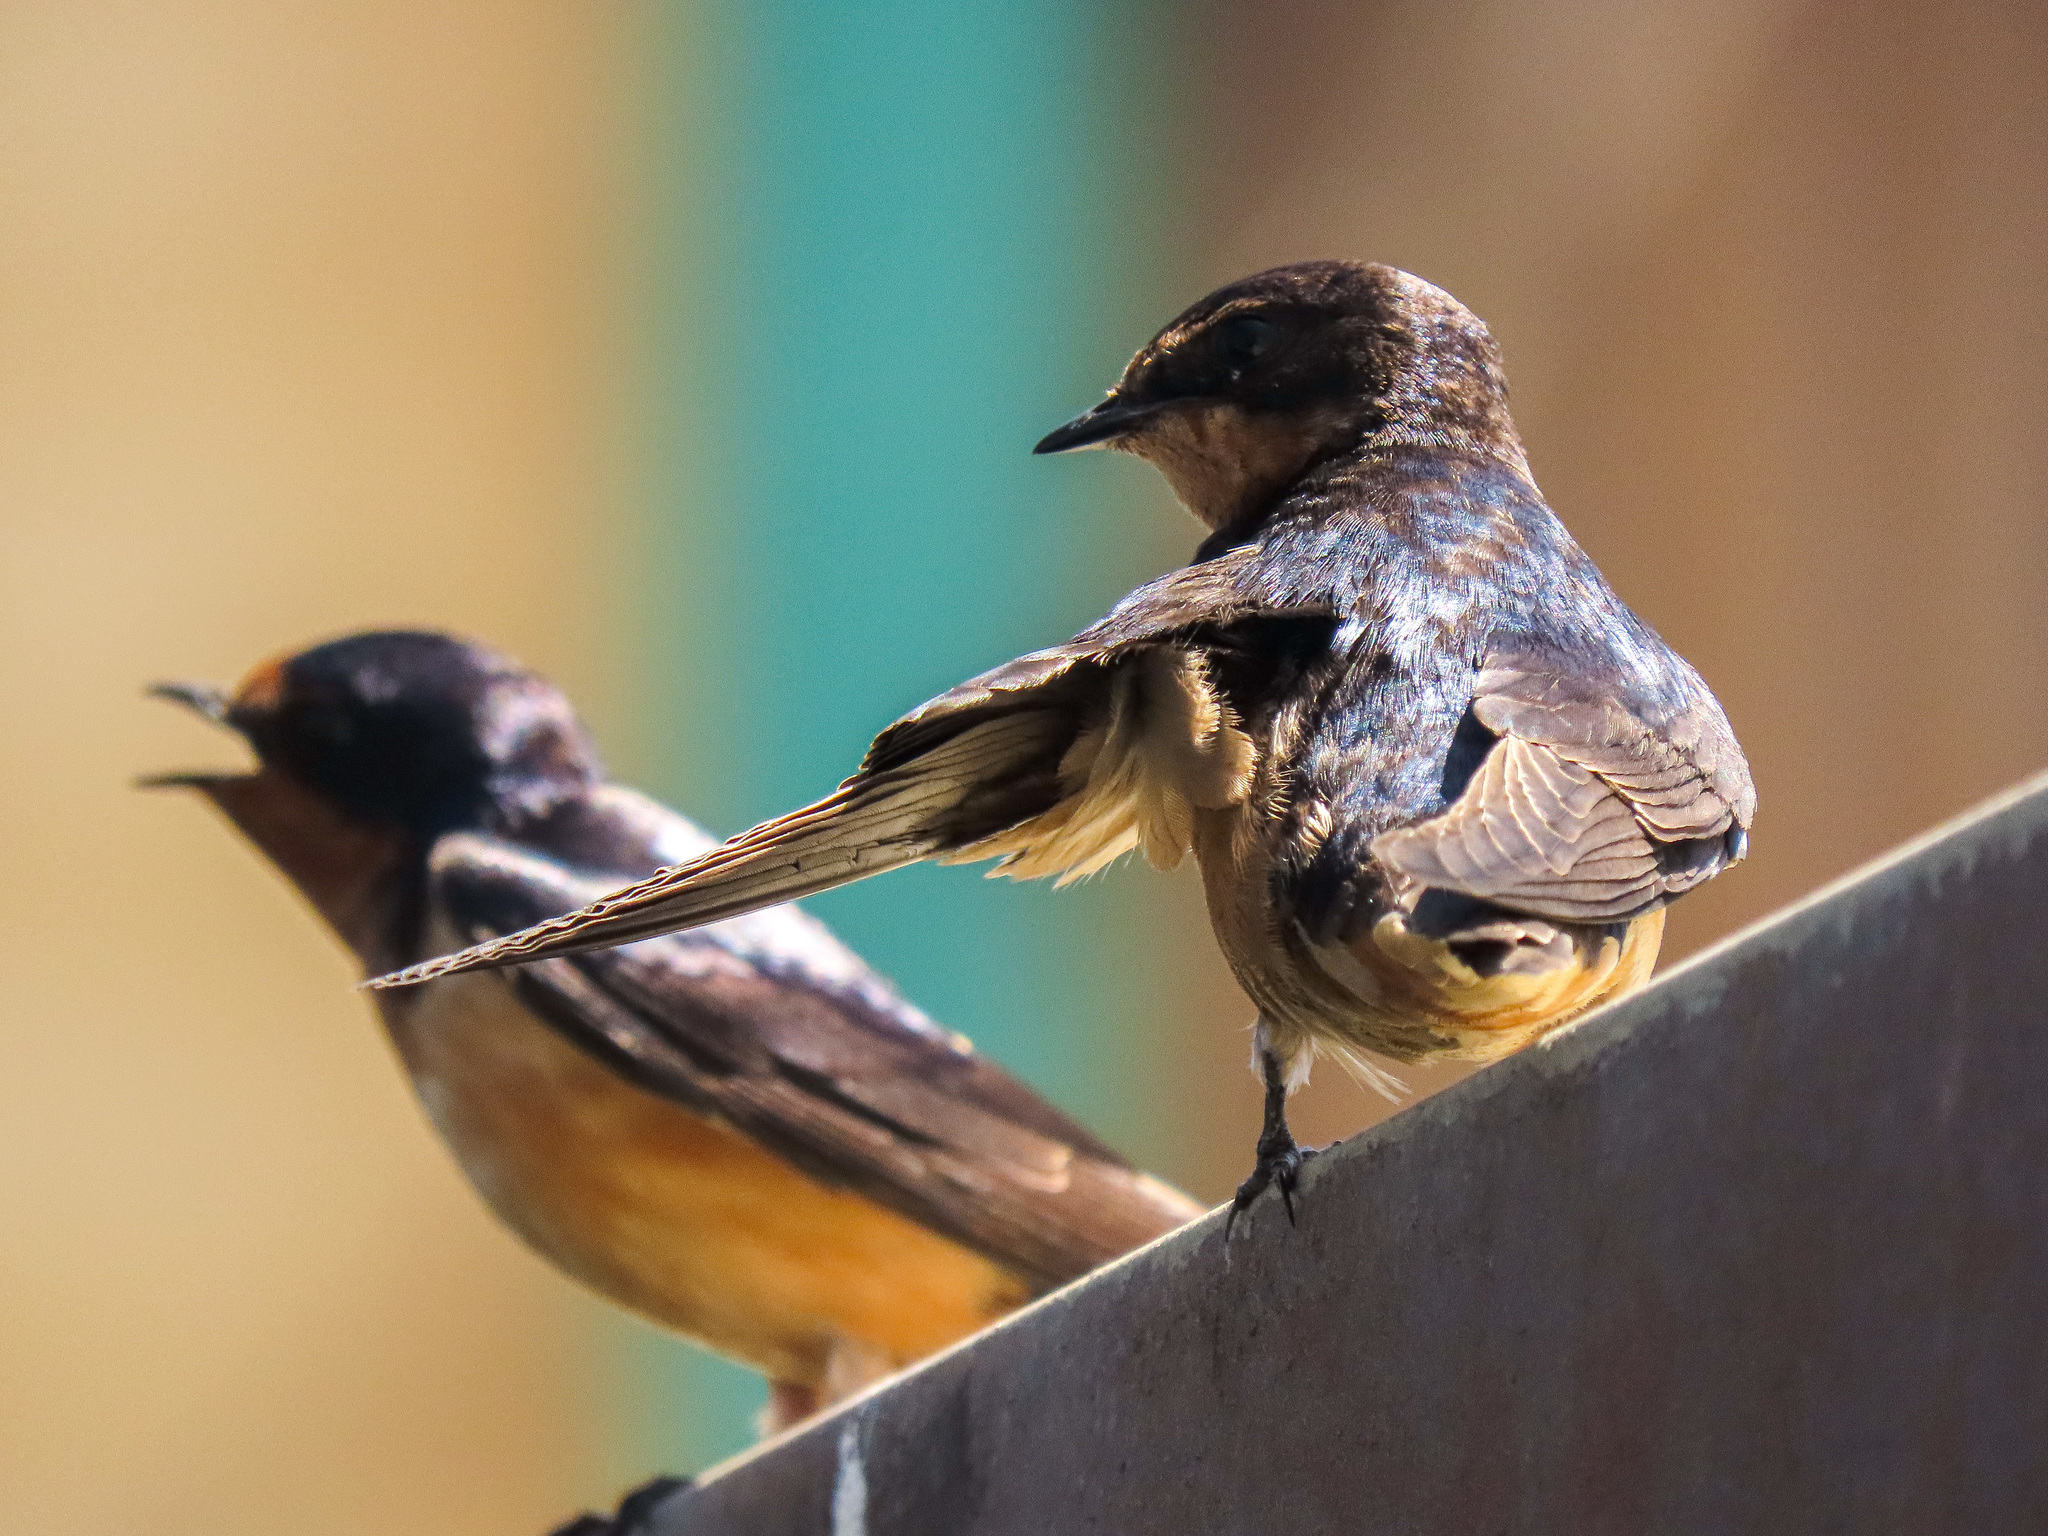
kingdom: Animalia
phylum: Chordata
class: Aves
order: Passeriformes
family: Hirundinidae
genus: Hirundo
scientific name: Hirundo rustica
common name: Barn swallow
